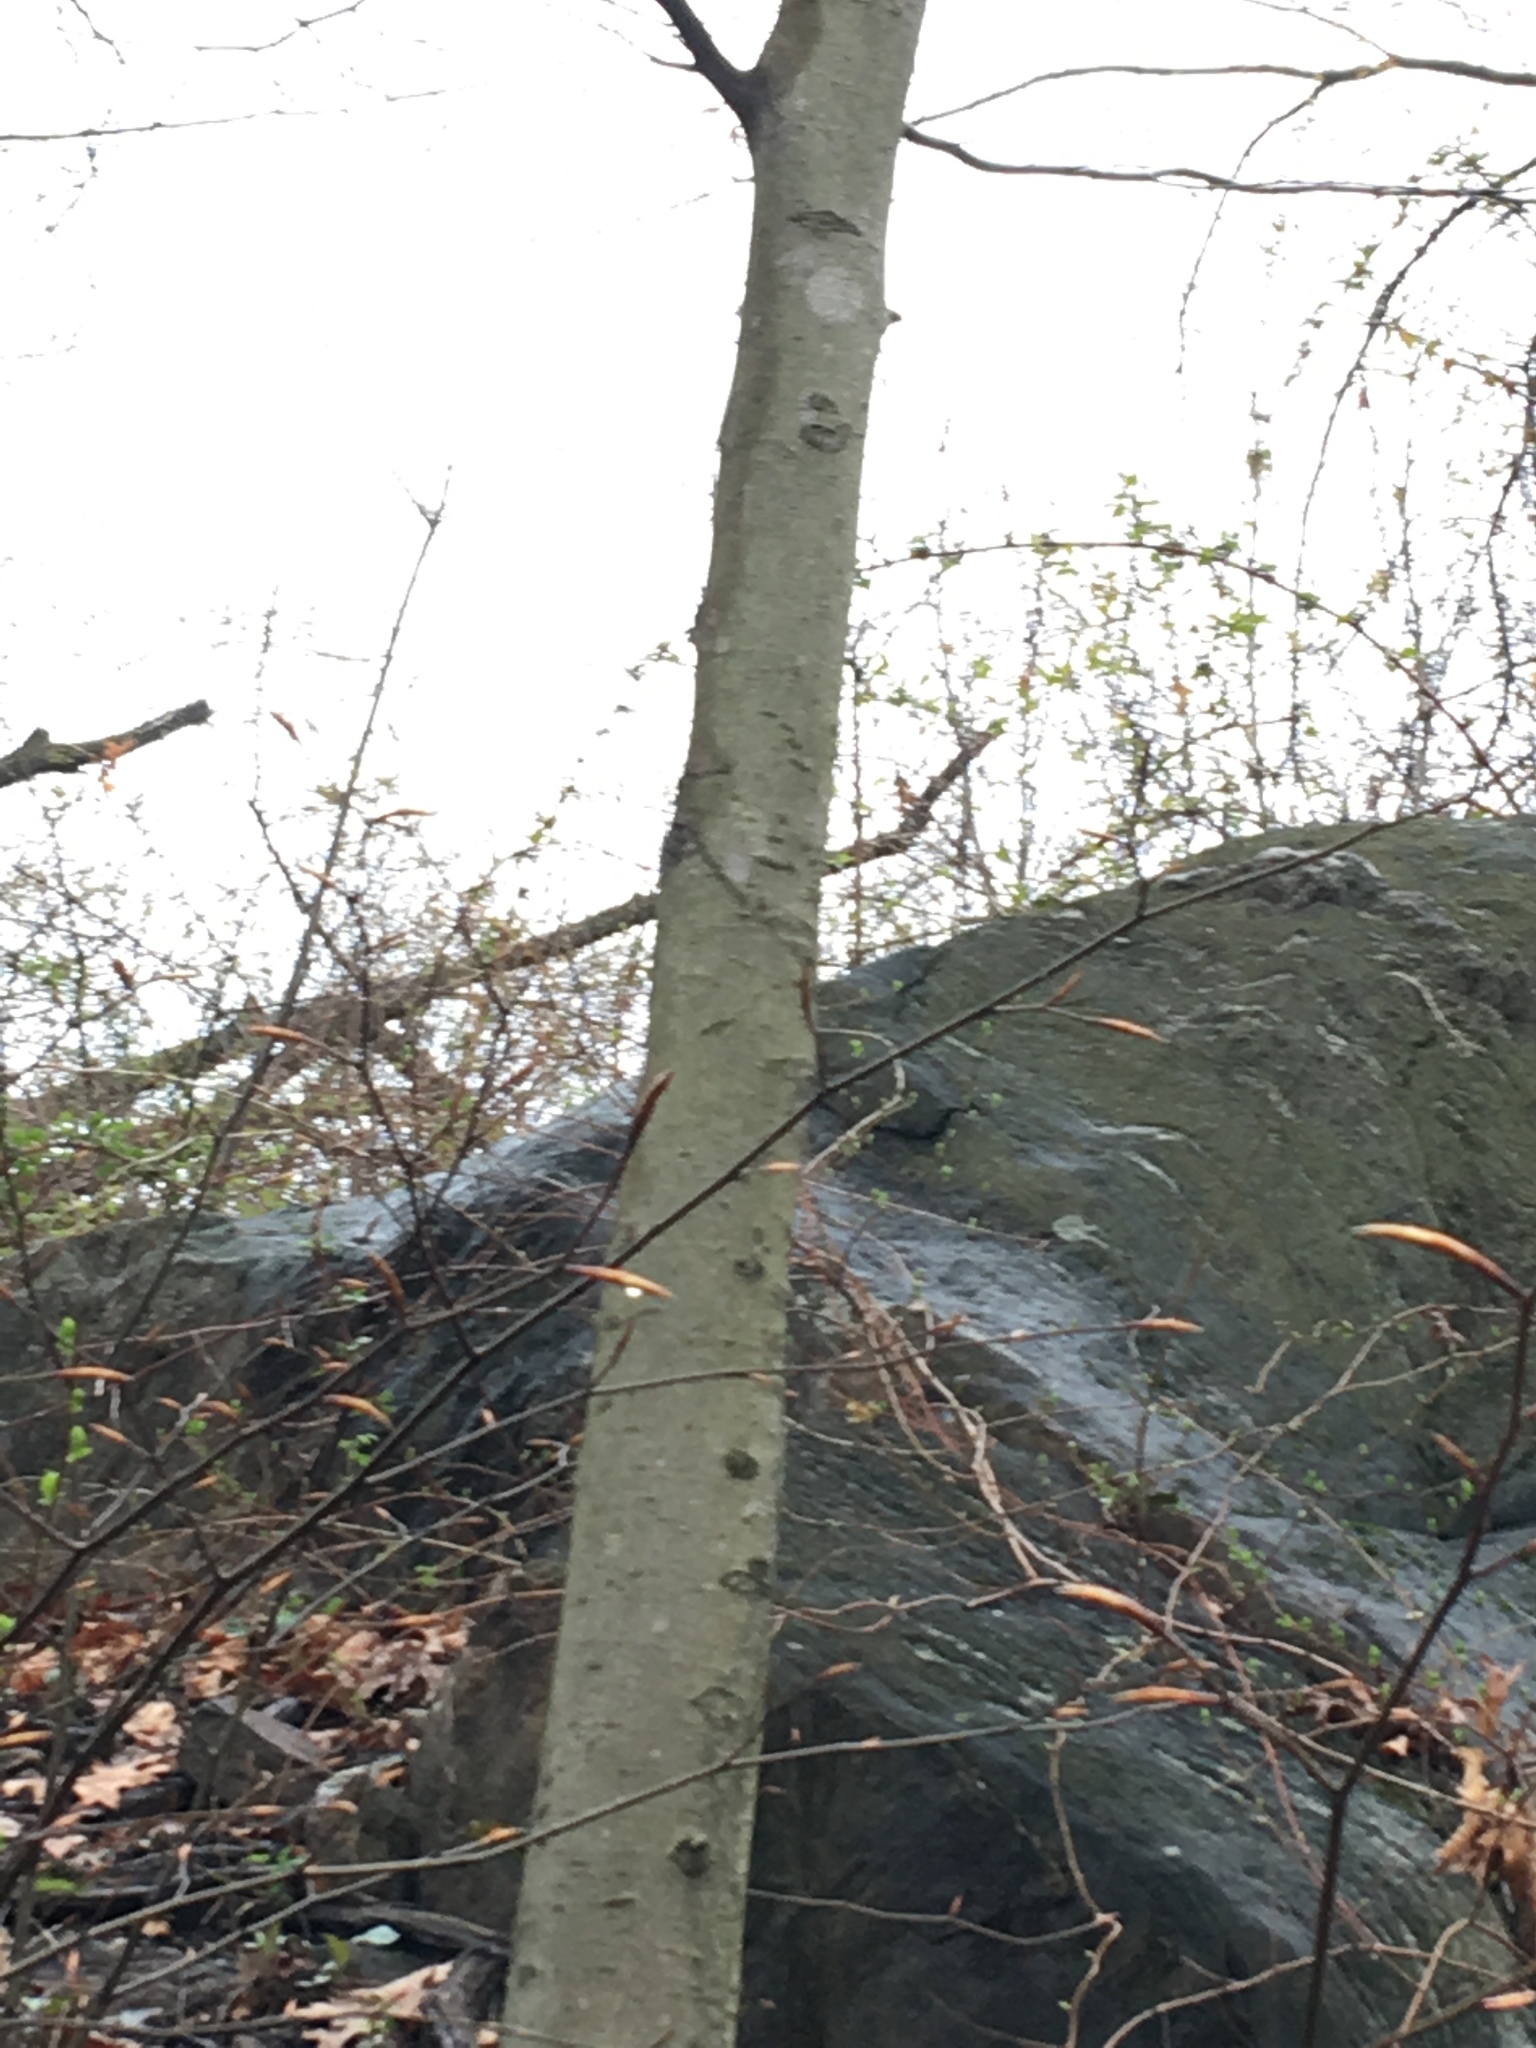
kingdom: Plantae
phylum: Tracheophyta
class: Magnoliopsida
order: Fagales
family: Fagaceae
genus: Fagus
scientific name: Fagus grandifolia
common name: American beech
